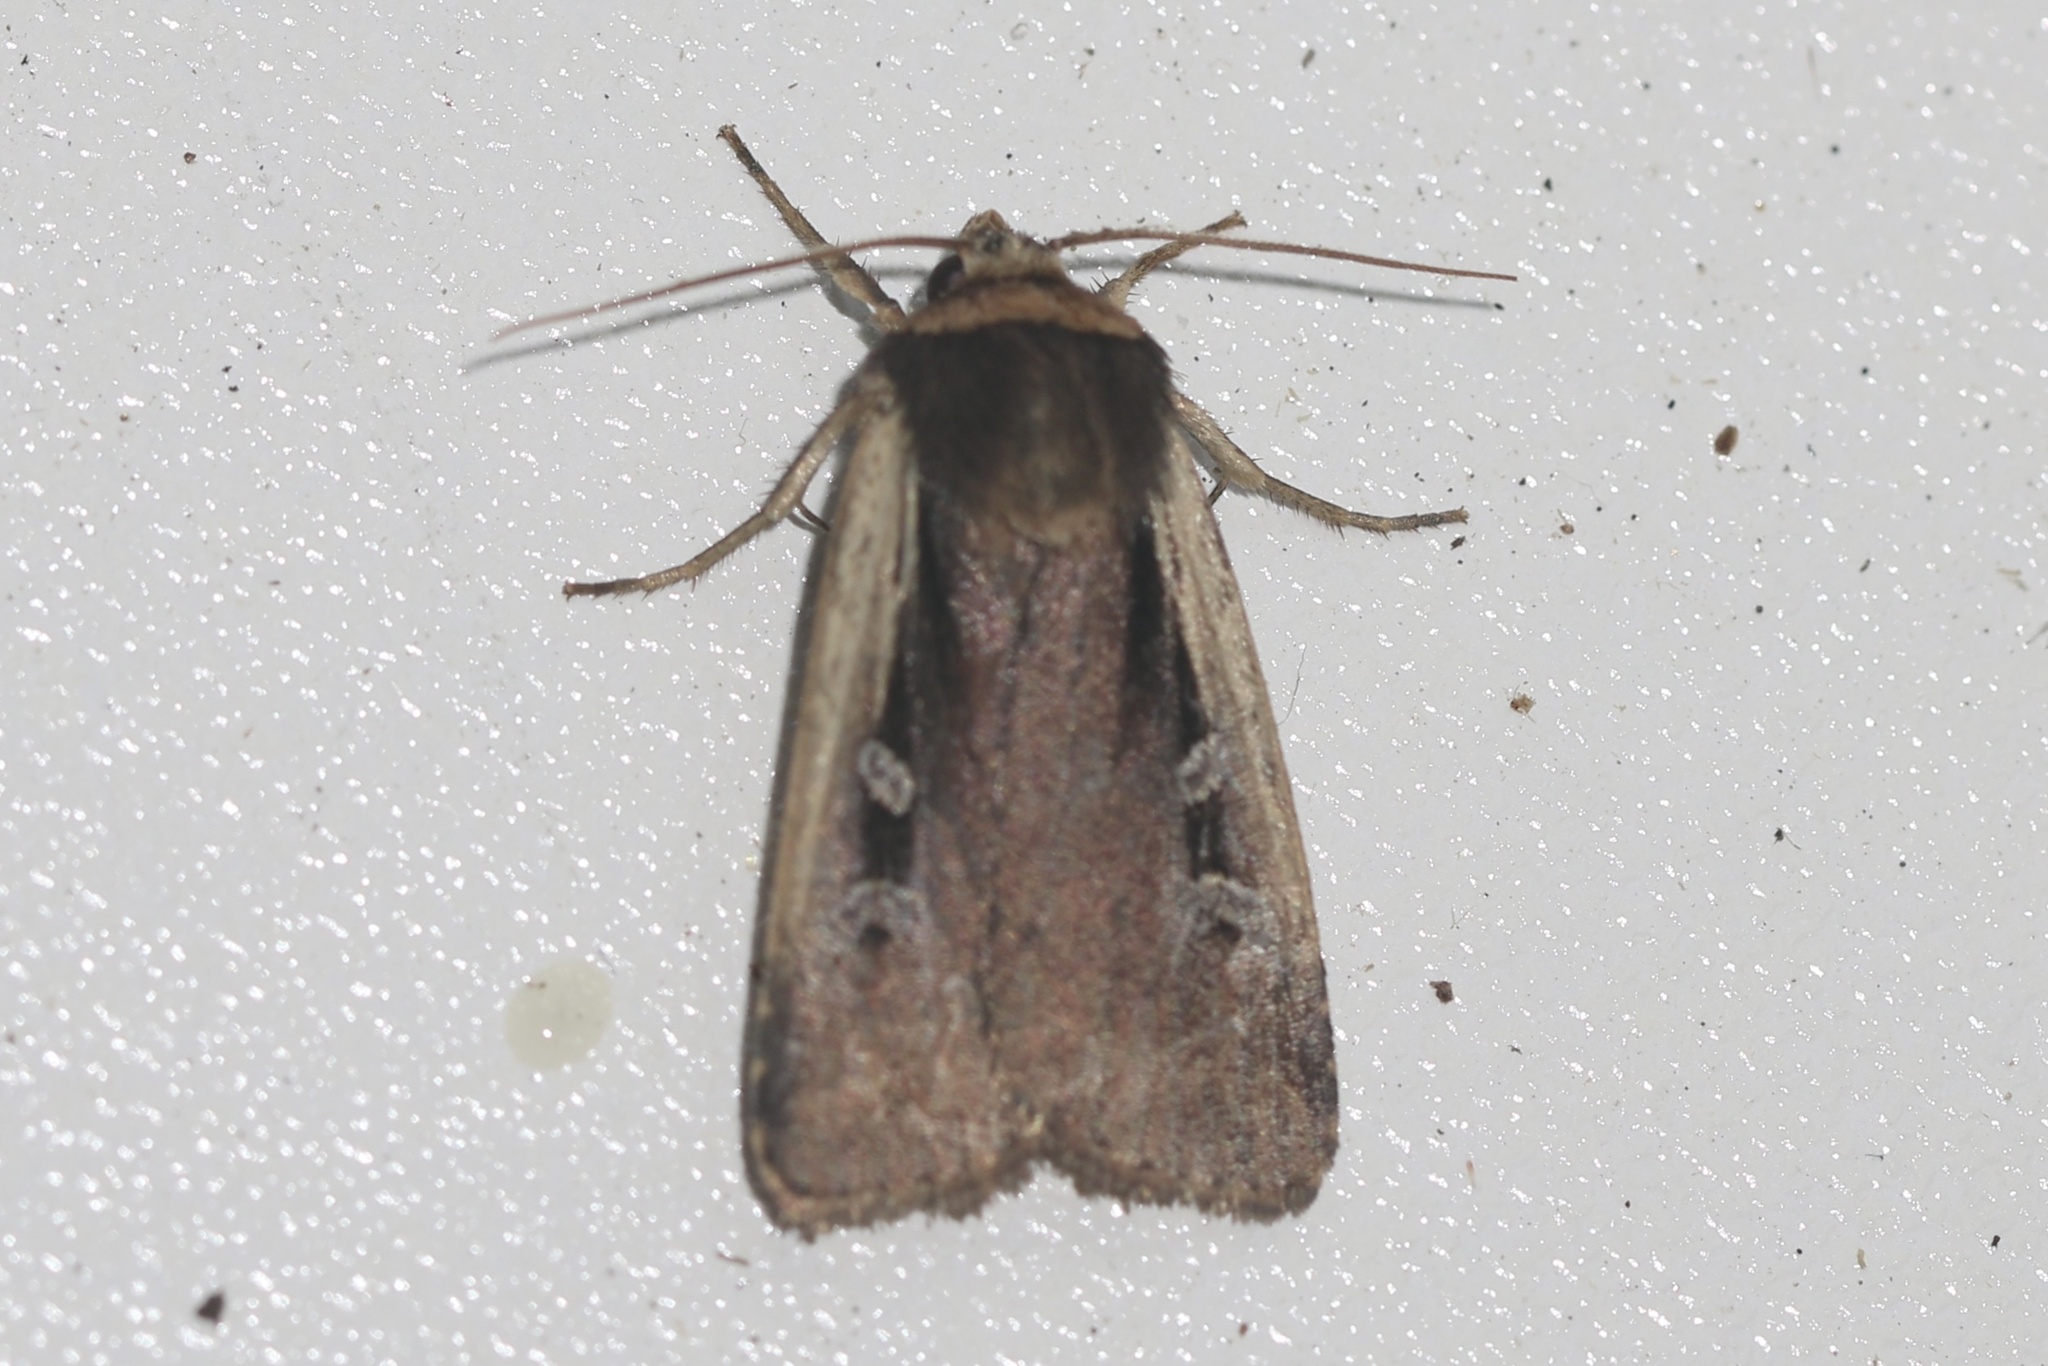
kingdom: Animalia
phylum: Arthropoda
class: Insecta
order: Lepidoptera
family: Noctuidae
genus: Ochropleura
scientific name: Ochropleura implecta
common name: Flame-shouldered dart
